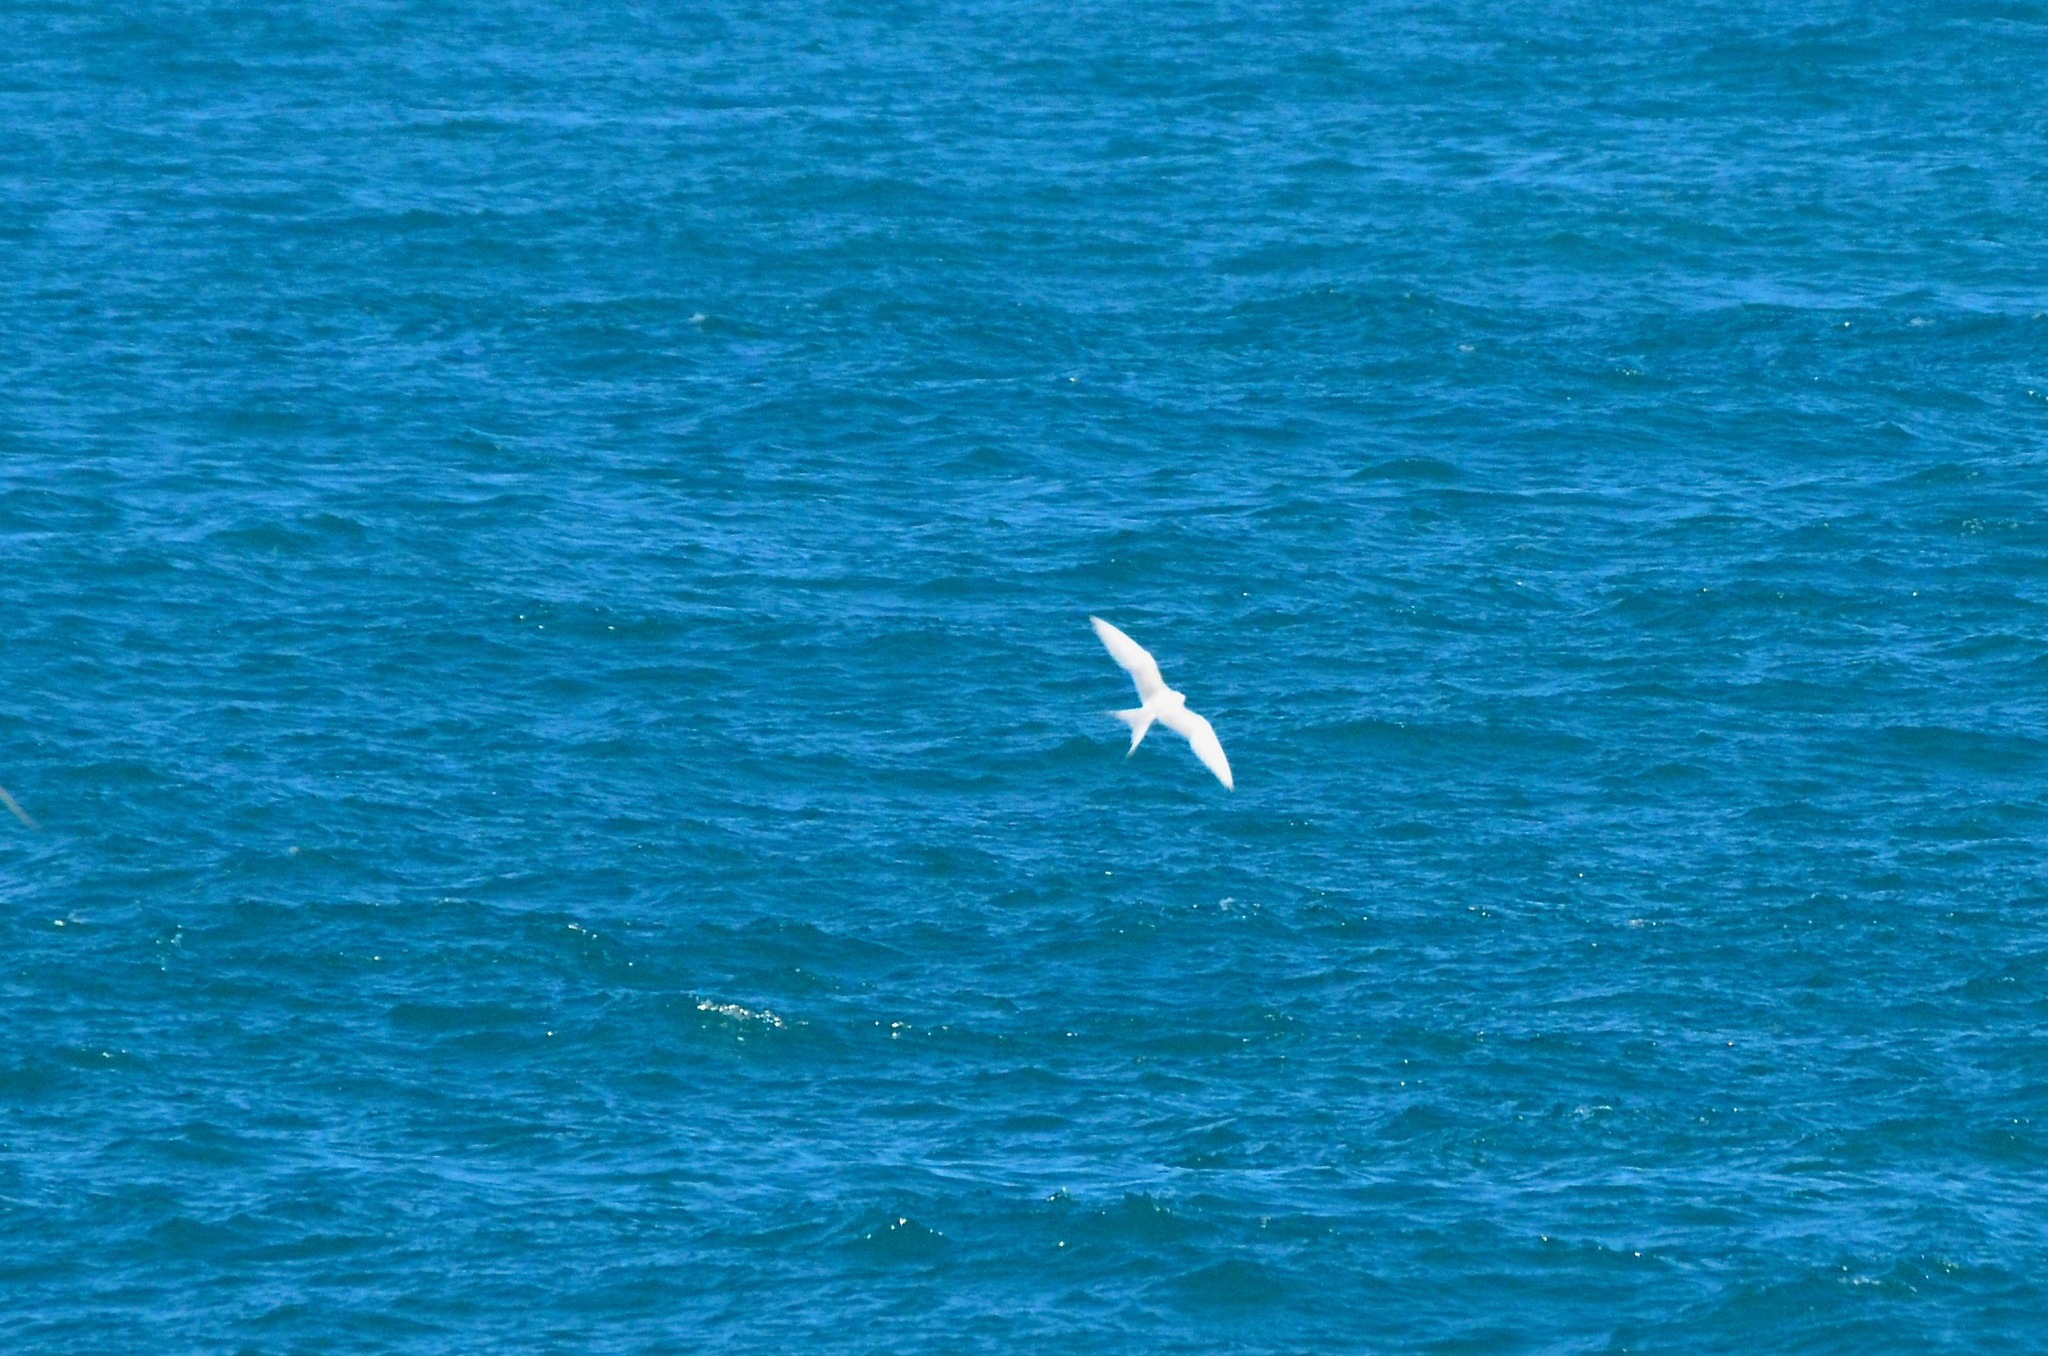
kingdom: Animalia
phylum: Chordata
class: Aves
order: Charadriiformes
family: Laridae
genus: Sterna
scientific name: Sterna striata
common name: White-fronted tern
